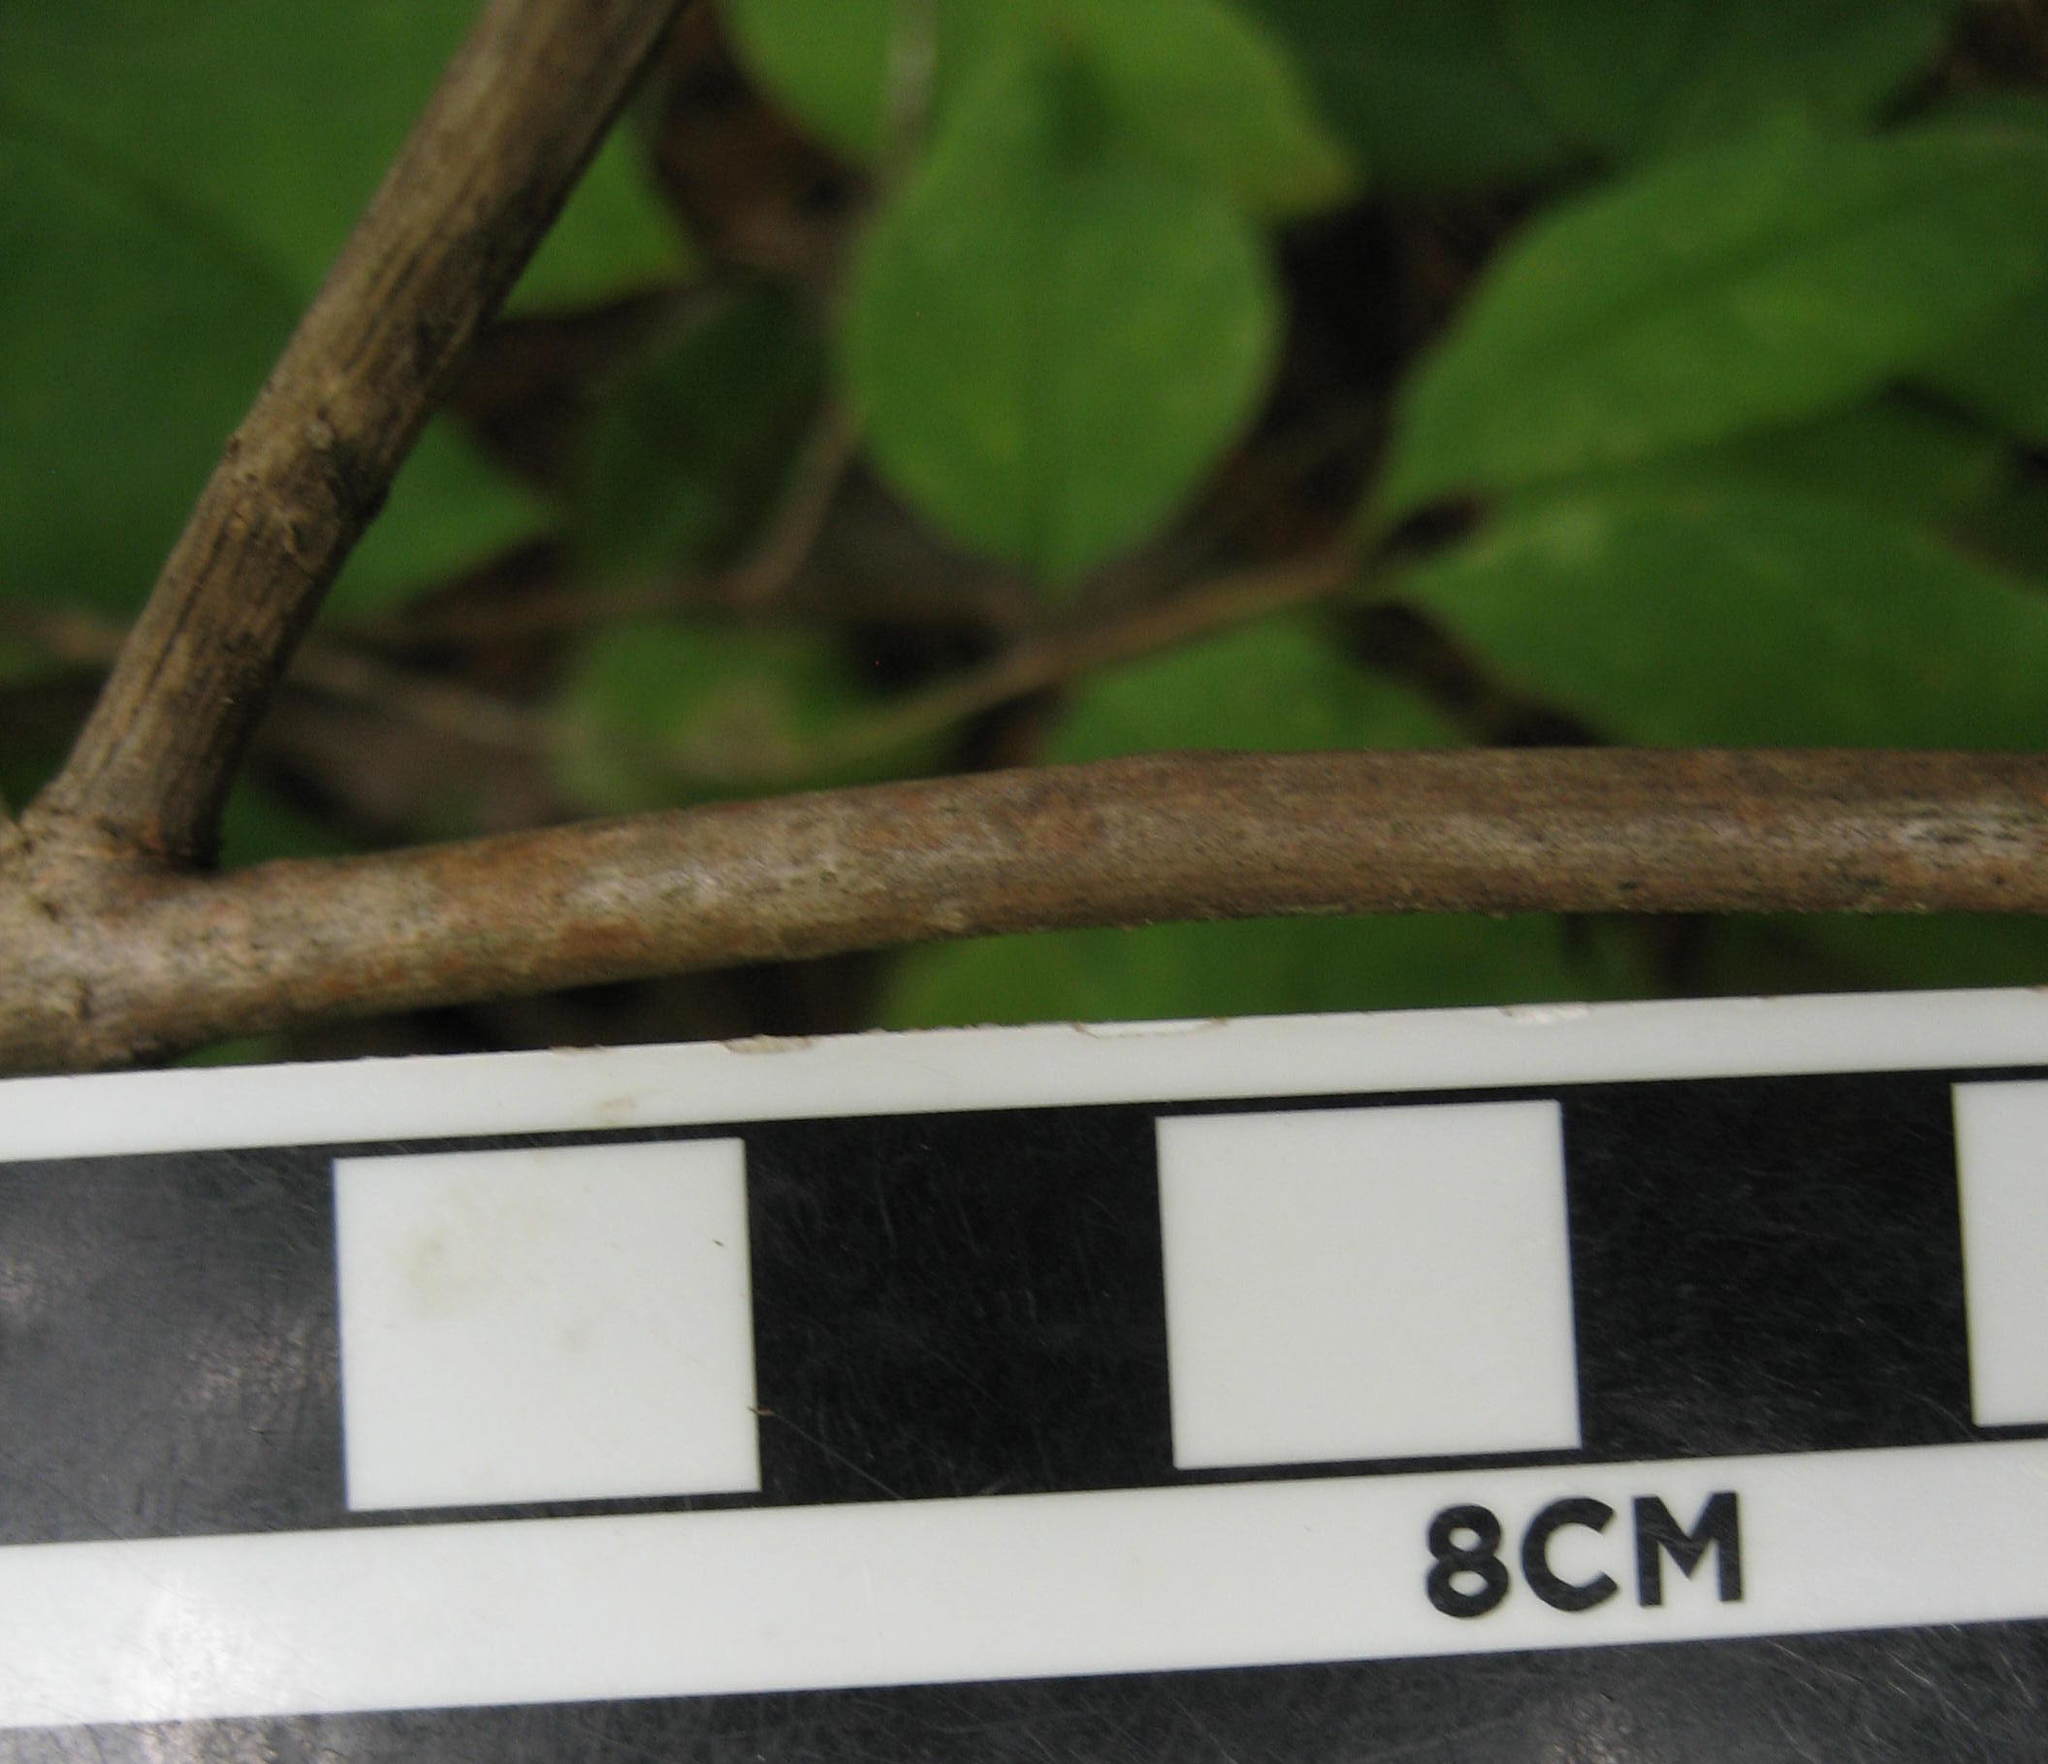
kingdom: Plantae
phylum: Tracheophyta
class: Magnoliopsida
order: Dipsacales
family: Caprifoliaceae
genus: Lonicera
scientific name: Lonicera canadensis
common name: American fly-honeysuckle
